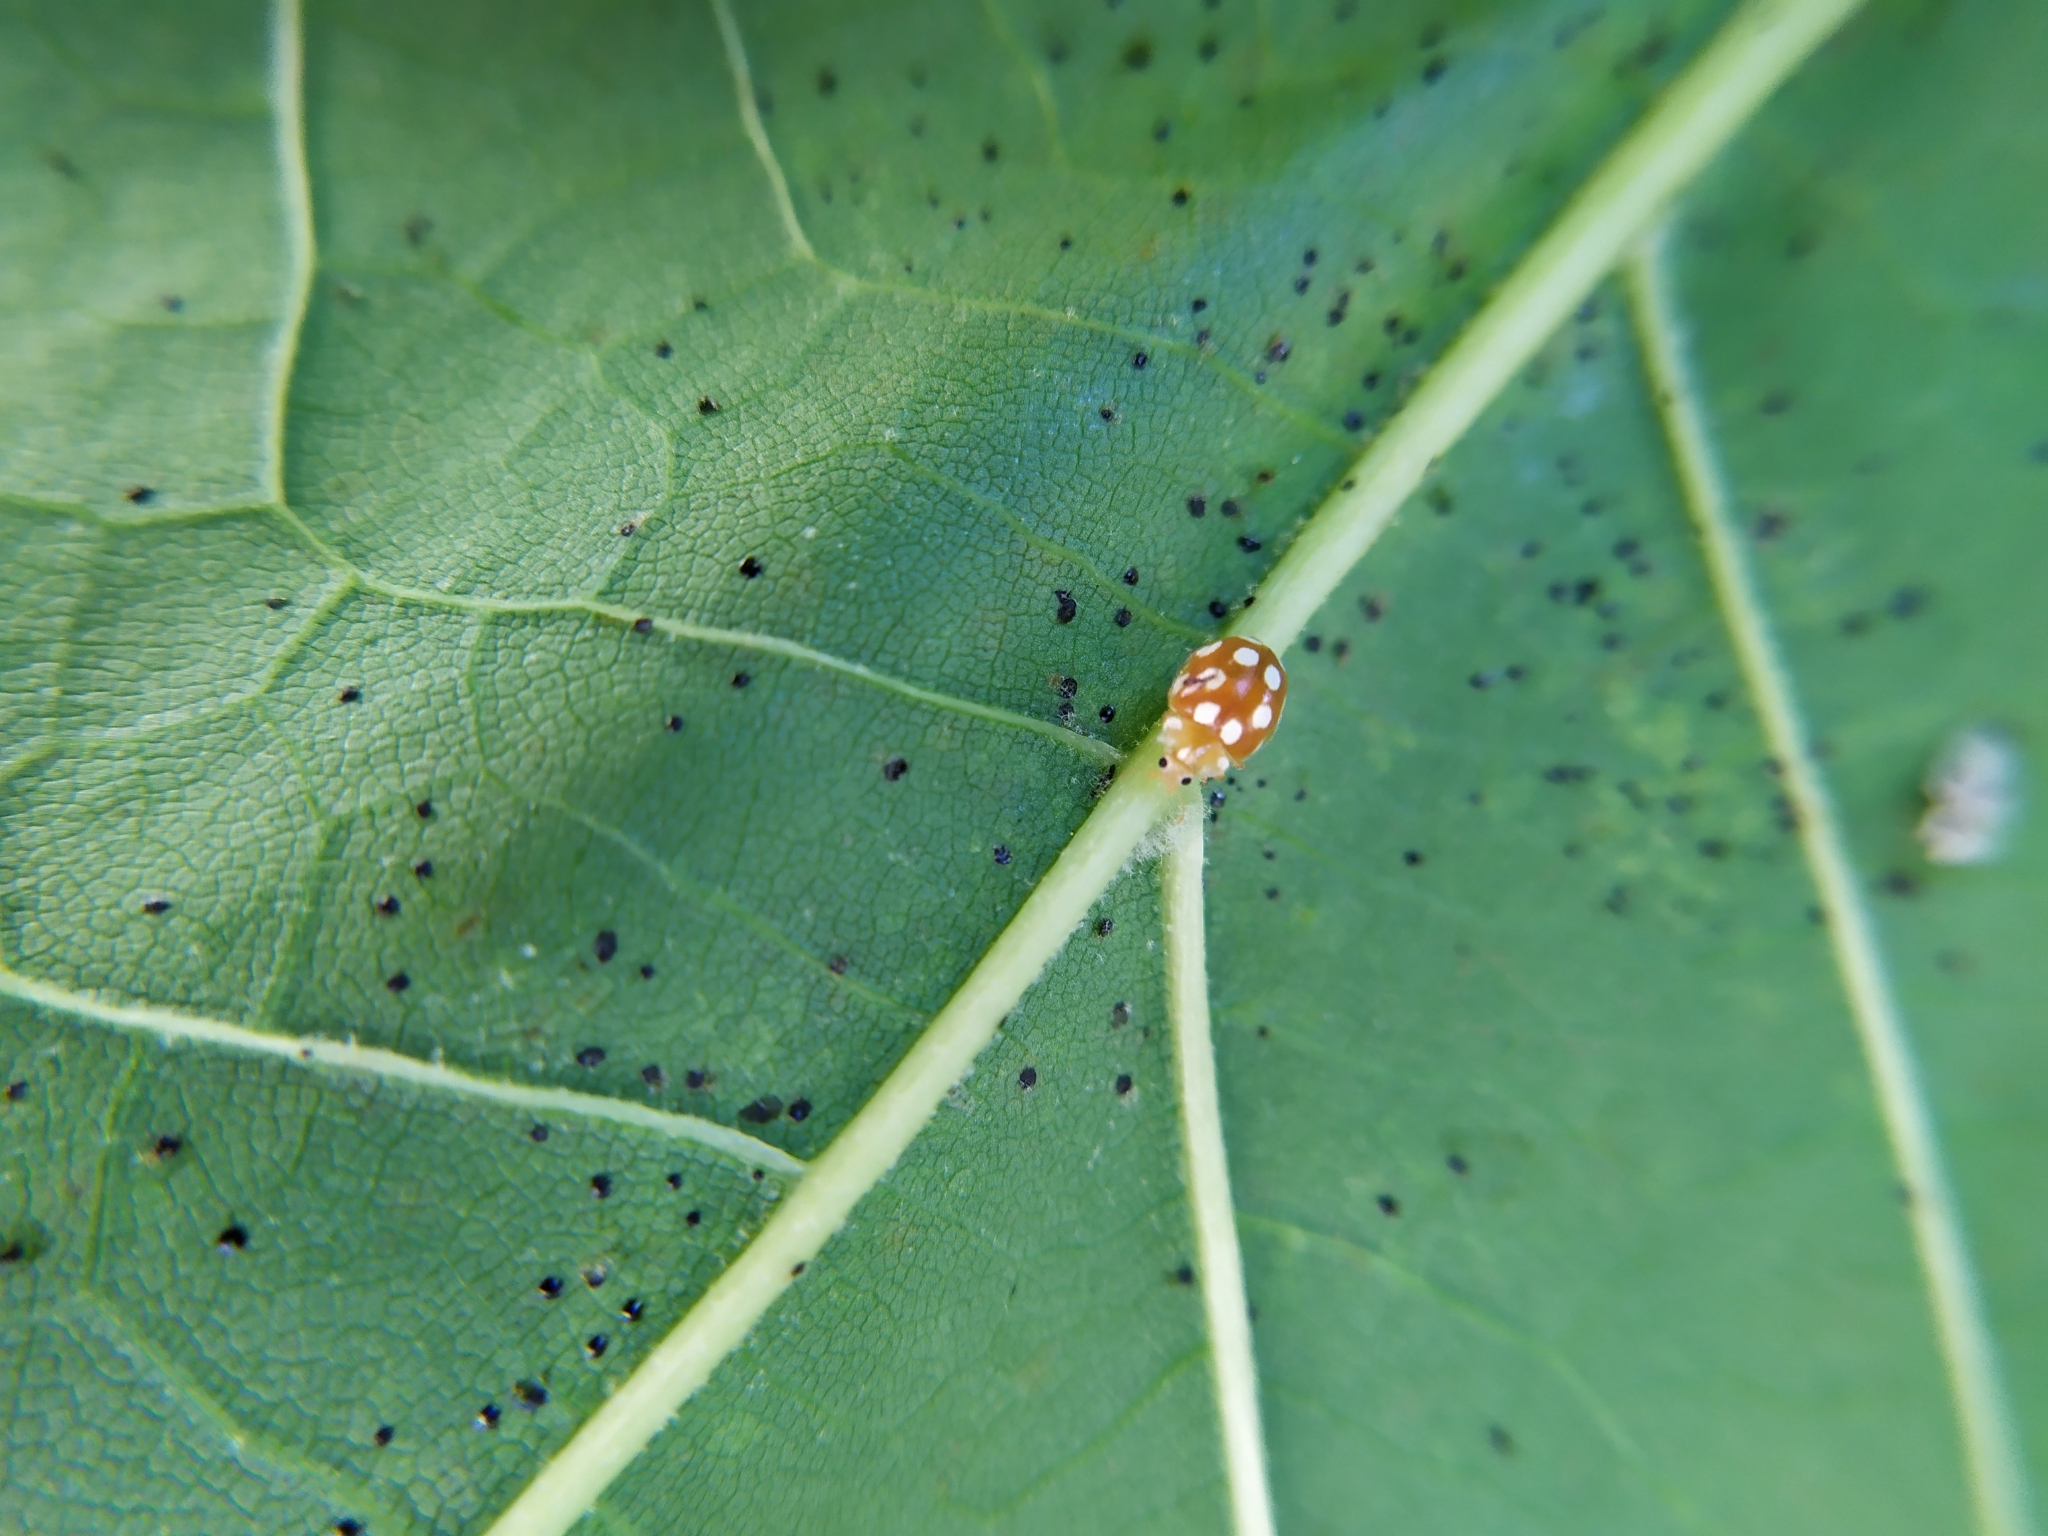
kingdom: Animalia
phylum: Arthropoda
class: Insecta
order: Coleoptera
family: Coccinellidae
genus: Vibidia
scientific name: Vibidia duodecimguttata
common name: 12-spot ladybird
